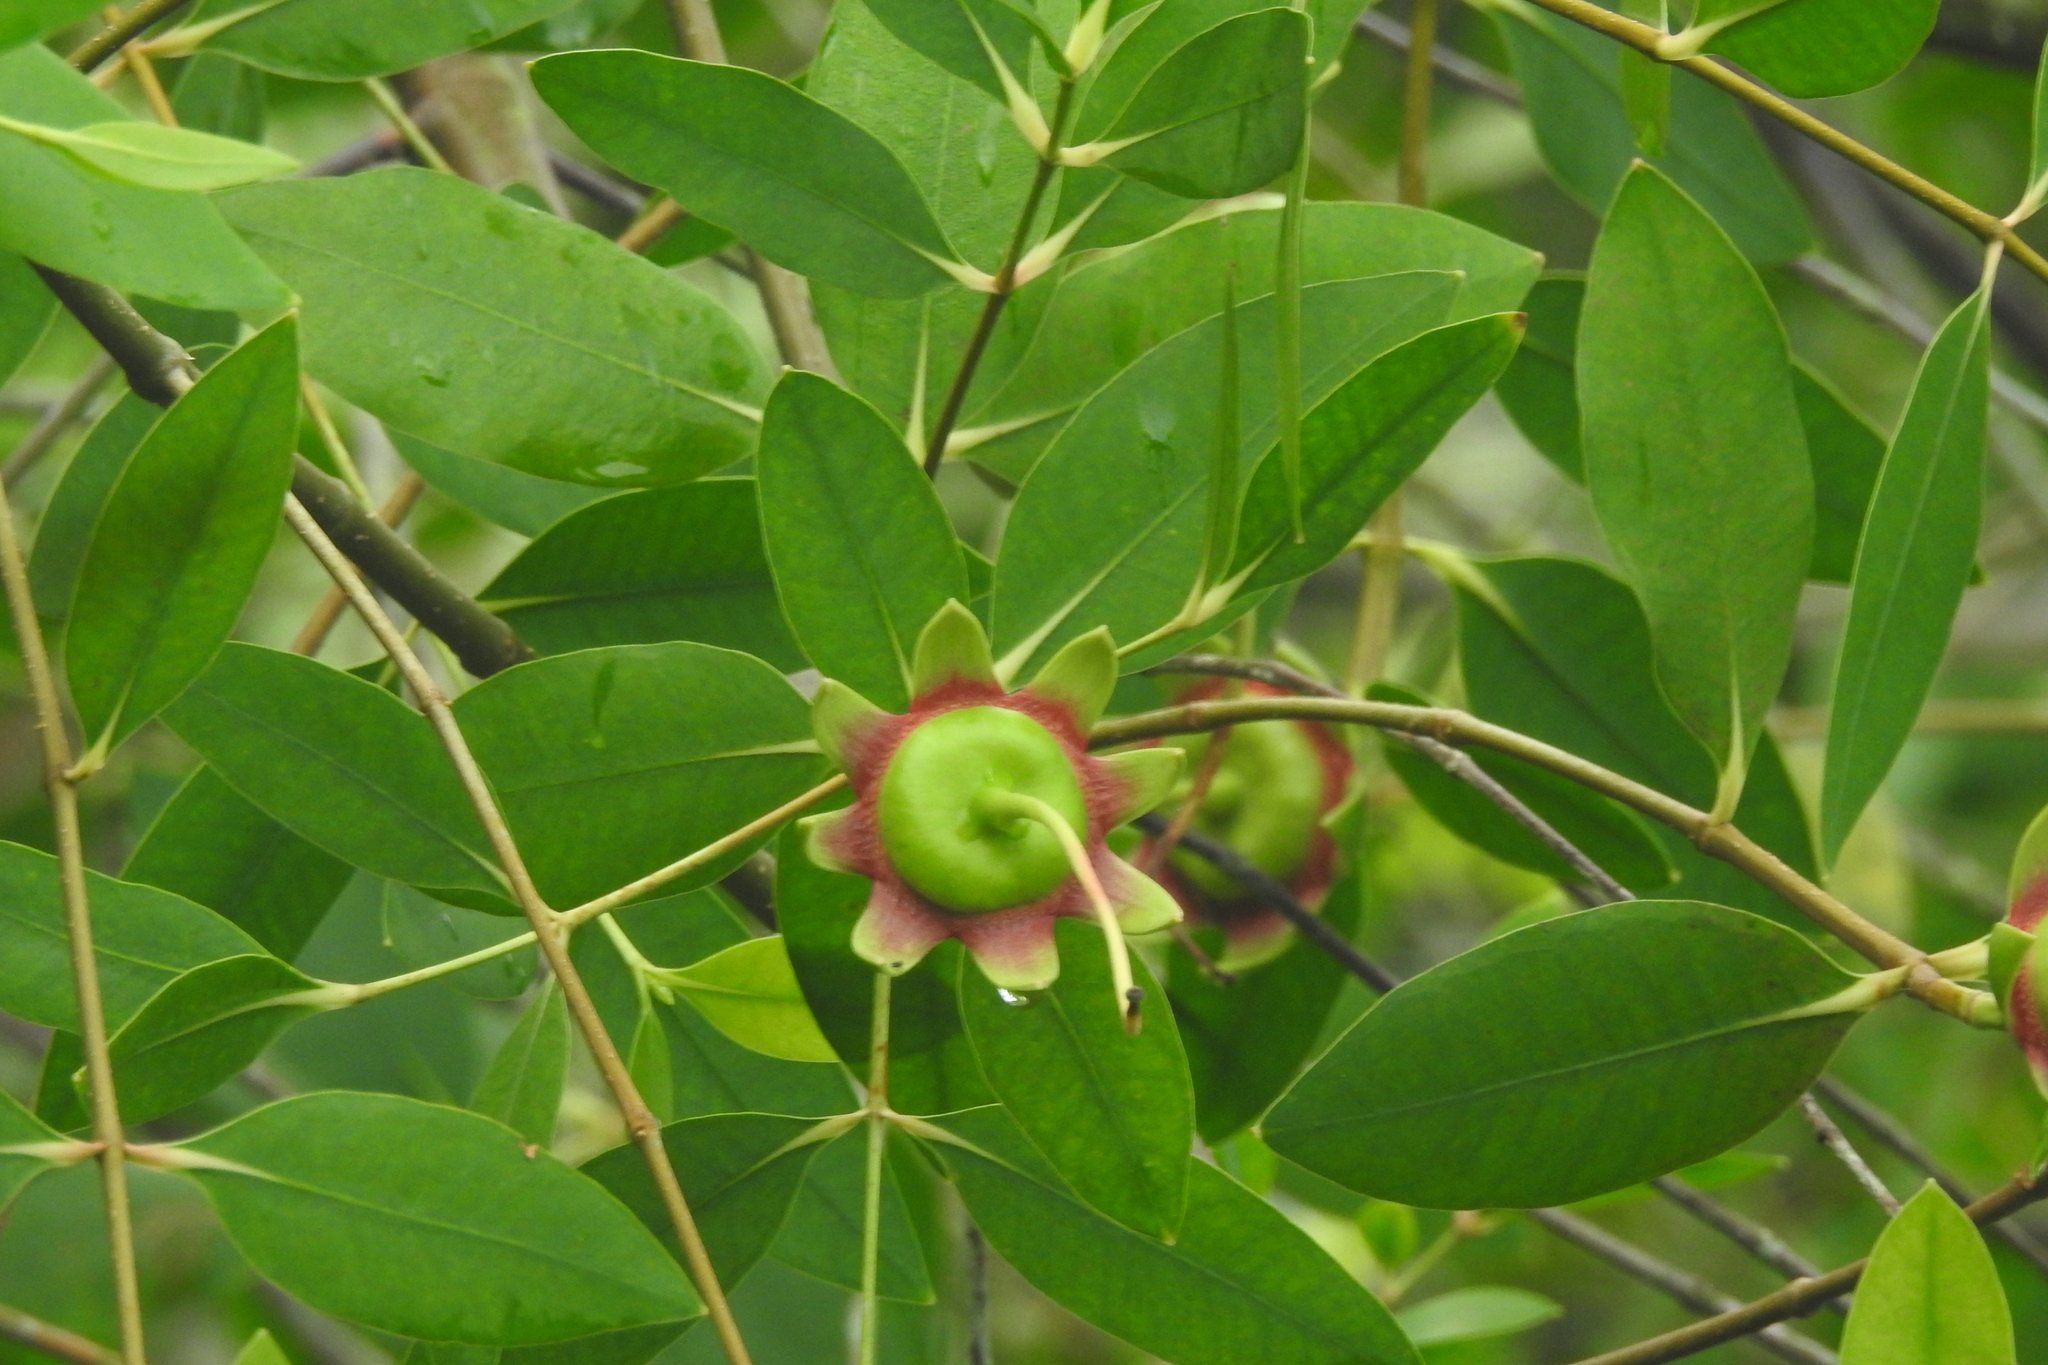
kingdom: Plantae
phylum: Tracheophyta
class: Magnoliopsida
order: Myrtales
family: Lythraceae
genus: Sonneratia
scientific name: Sonneratia caseolaris
